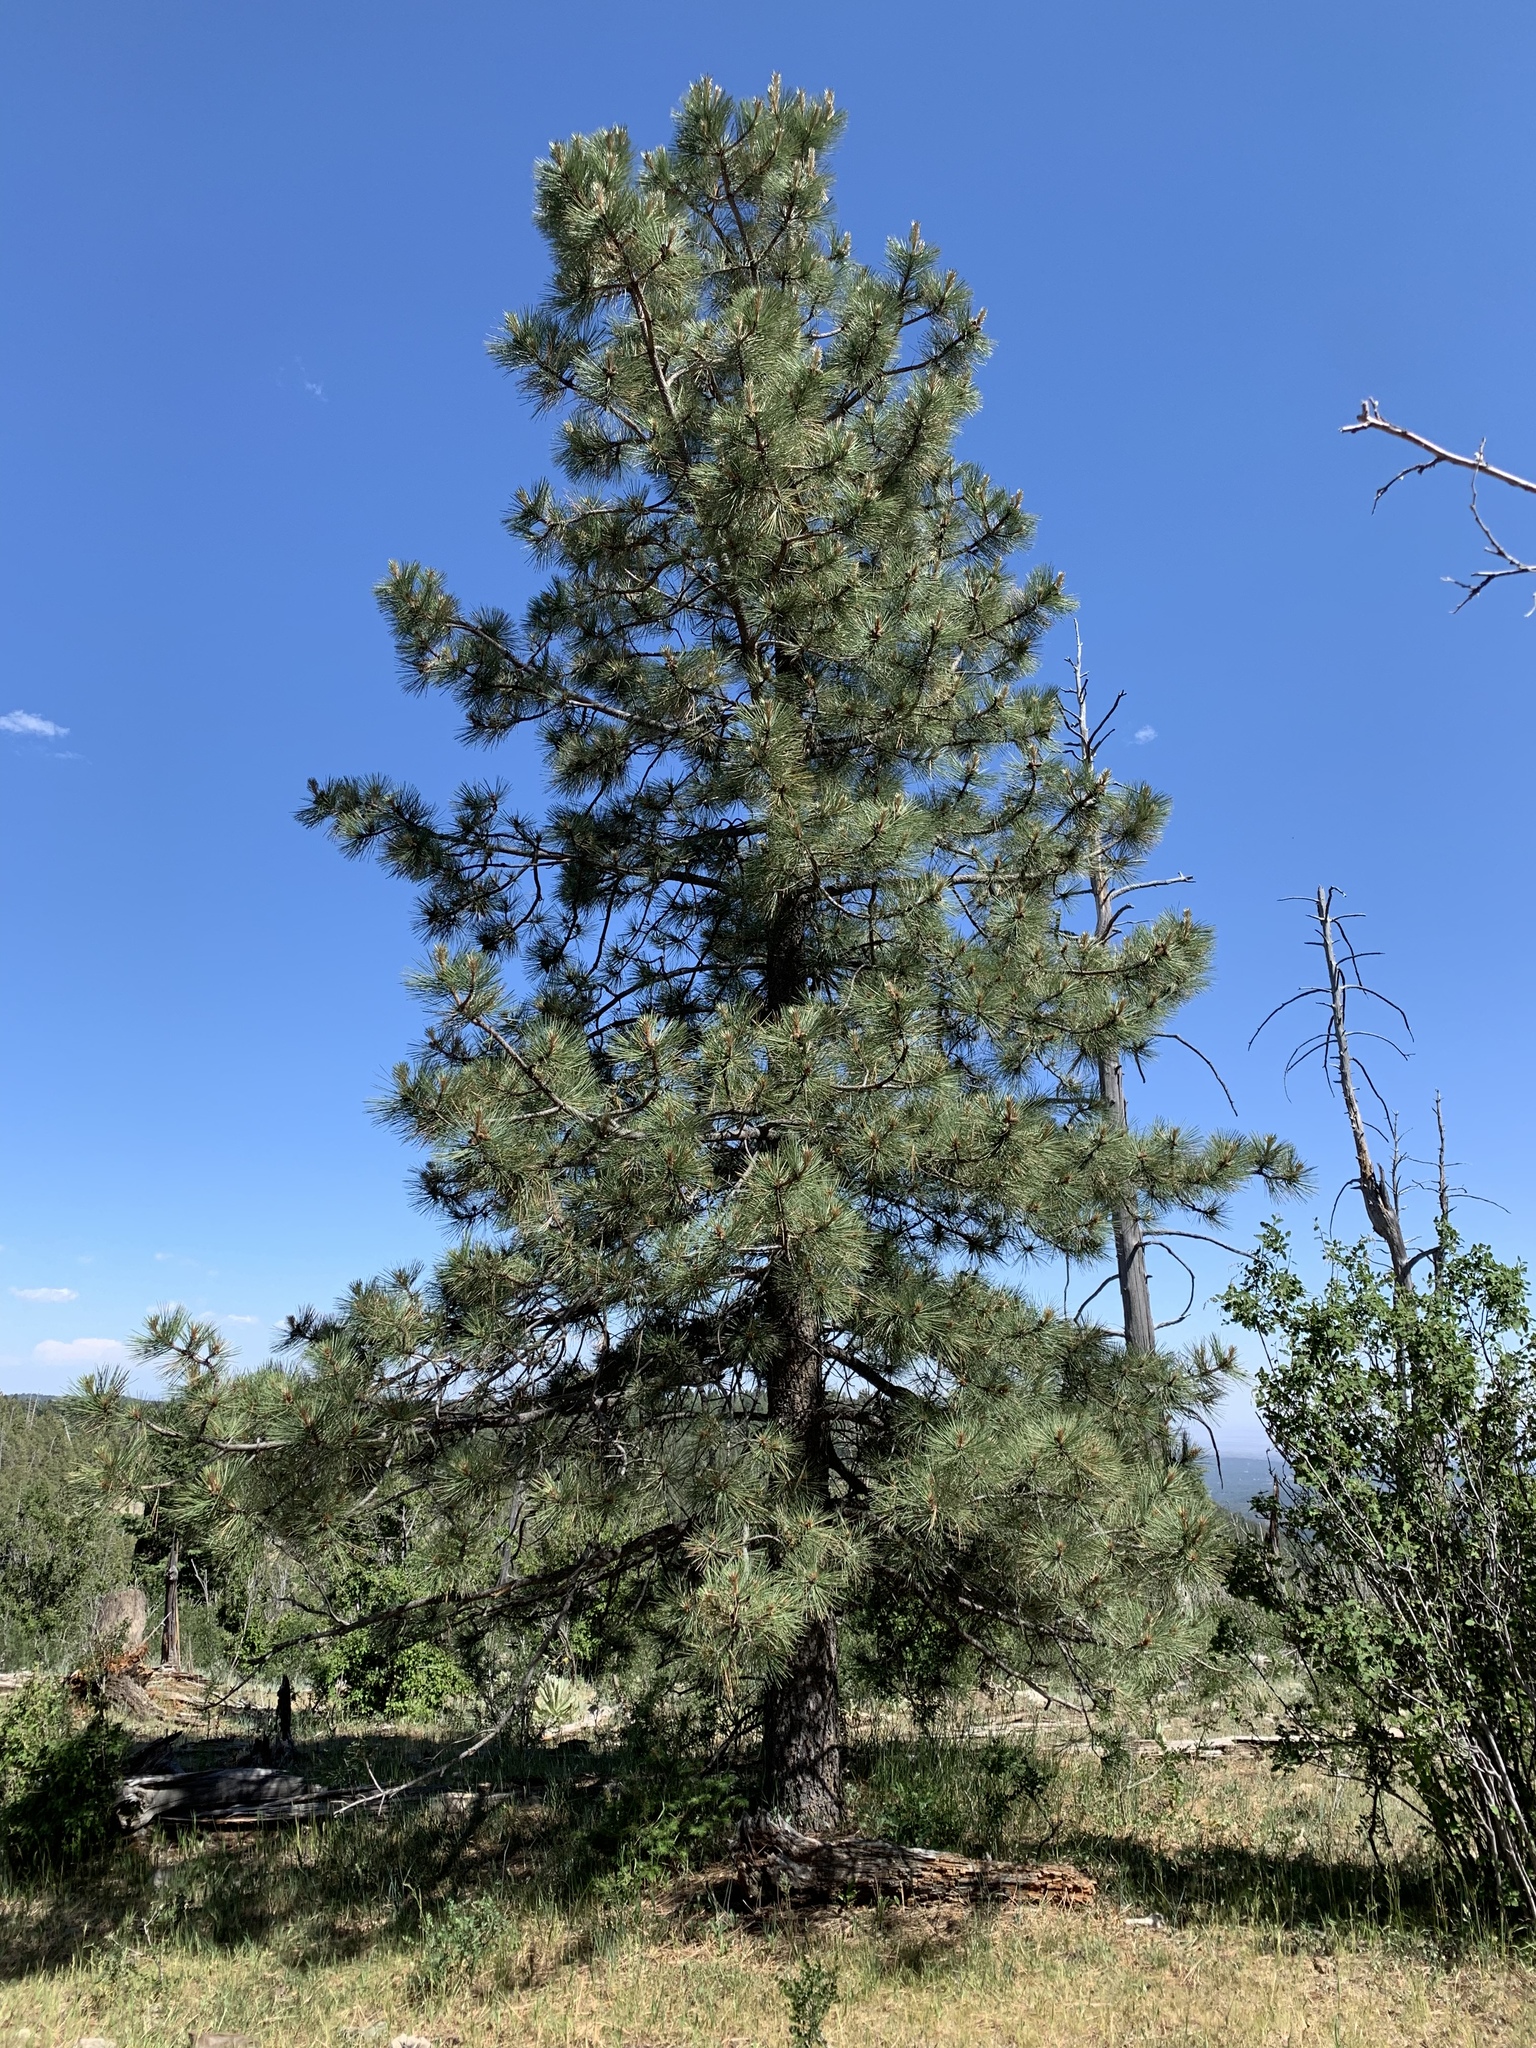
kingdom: Plantae
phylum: Tracheophyta
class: Pinopsida
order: Pinales
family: Pinaceae
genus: Pinus
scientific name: Pinus ponderosa
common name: Western yellow-pine
